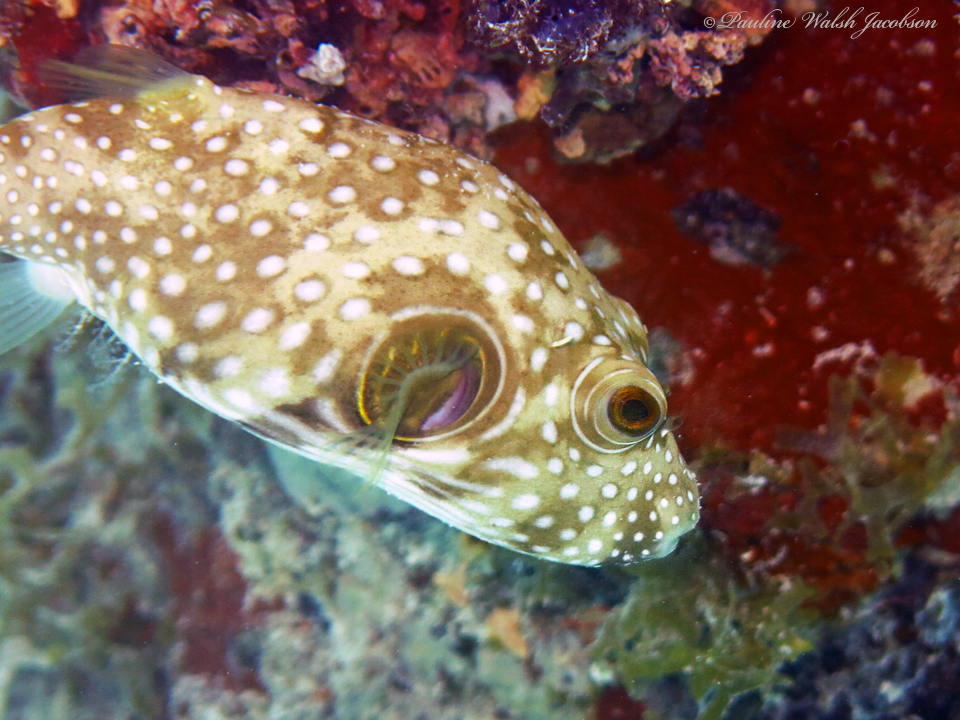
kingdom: Animalia
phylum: Chordata
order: Tetraodontiformes
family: Tetraodontidae
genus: Arothron
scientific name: Arothron hispidus
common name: Stripebelly puffer
